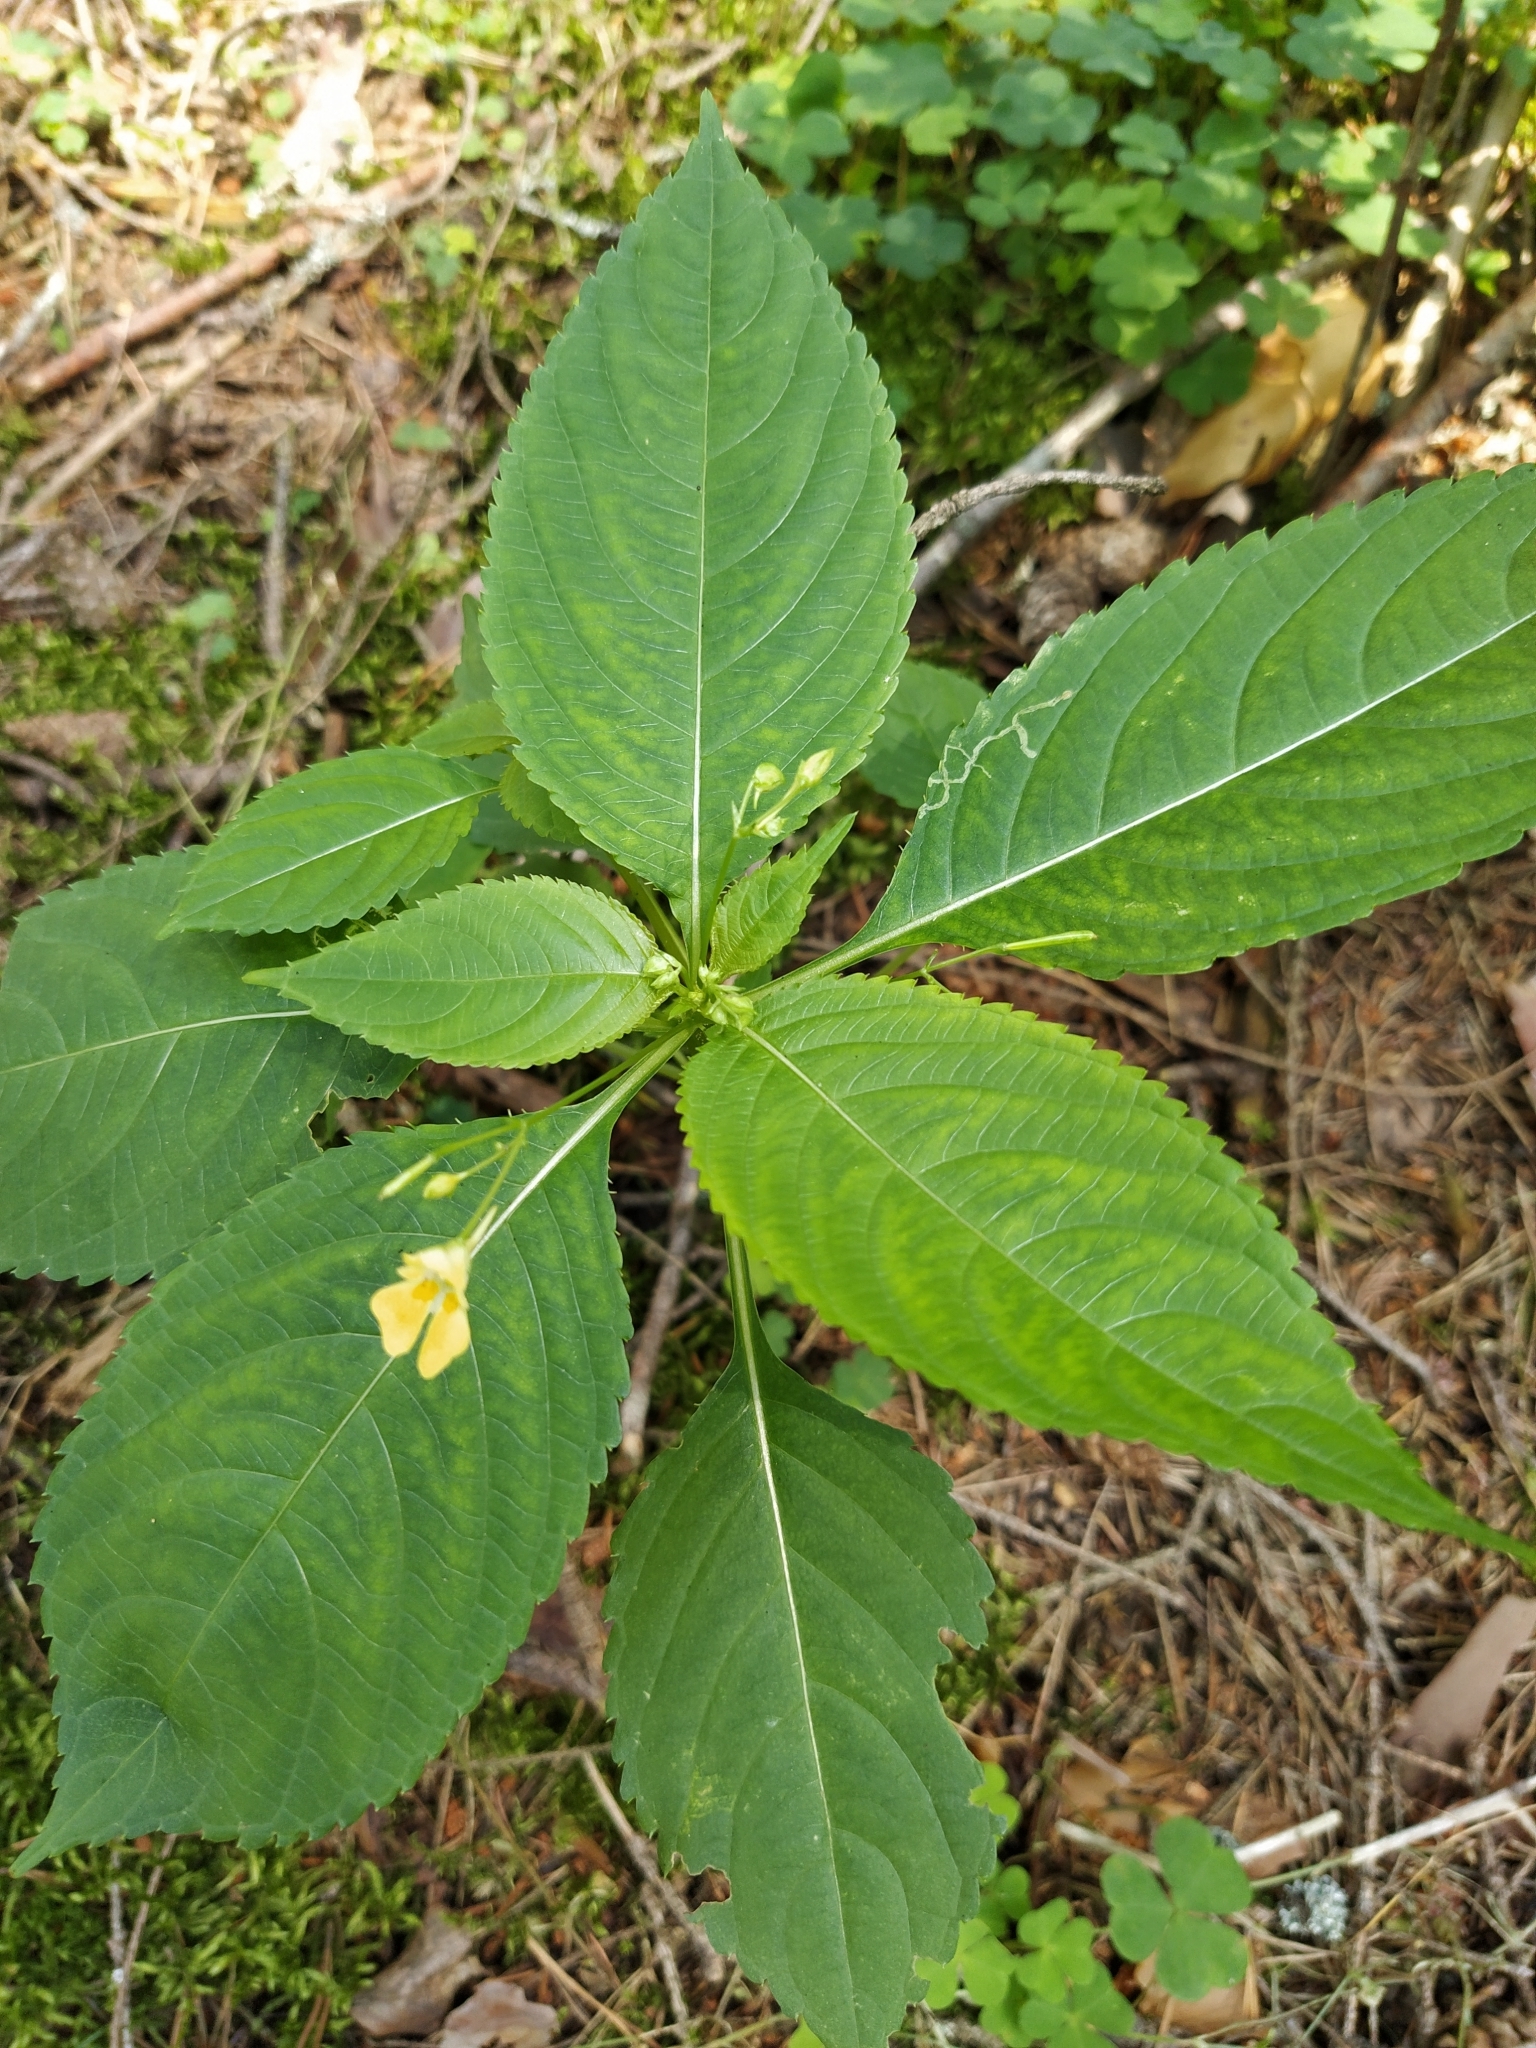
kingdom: Plantae
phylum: Tracheophyta
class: Magnoliopsida
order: Ericales
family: Balsaminaceae
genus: Impatiens
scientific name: Impatiens parviflora
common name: Small balsam
